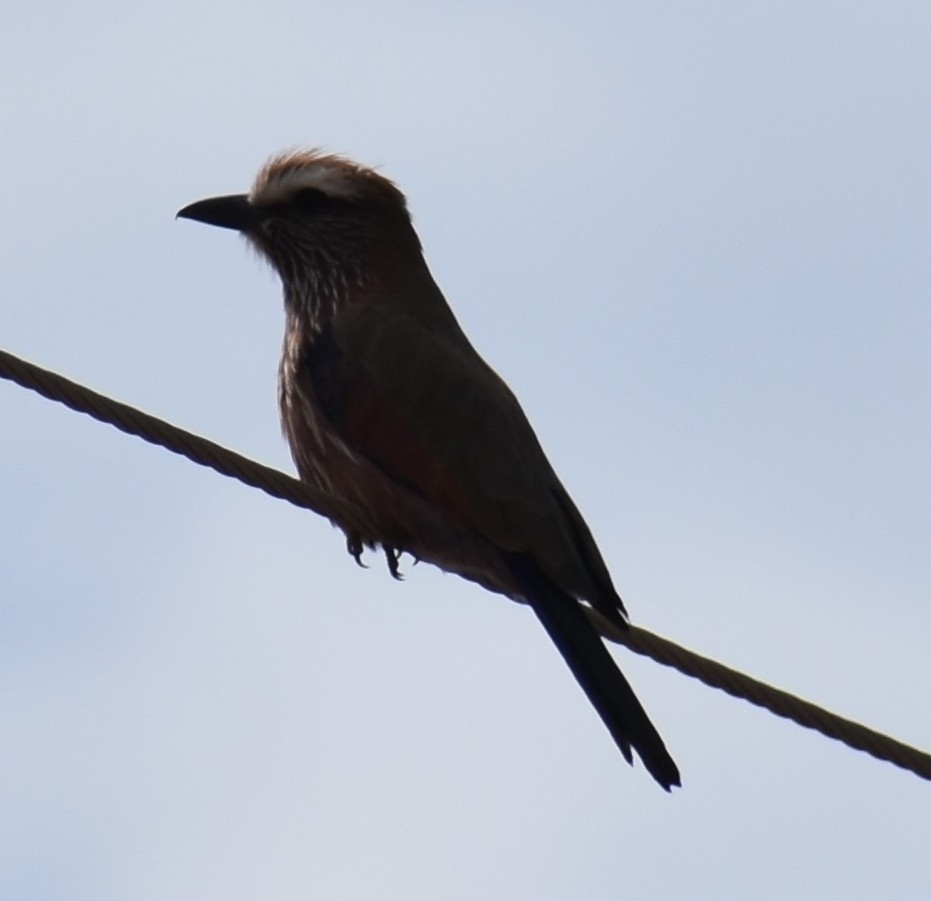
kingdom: Animalia
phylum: Chordata
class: Aves
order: Coraciiformes
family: Coraciidae
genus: Coracias
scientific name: Coracias naevius
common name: Purple roller
